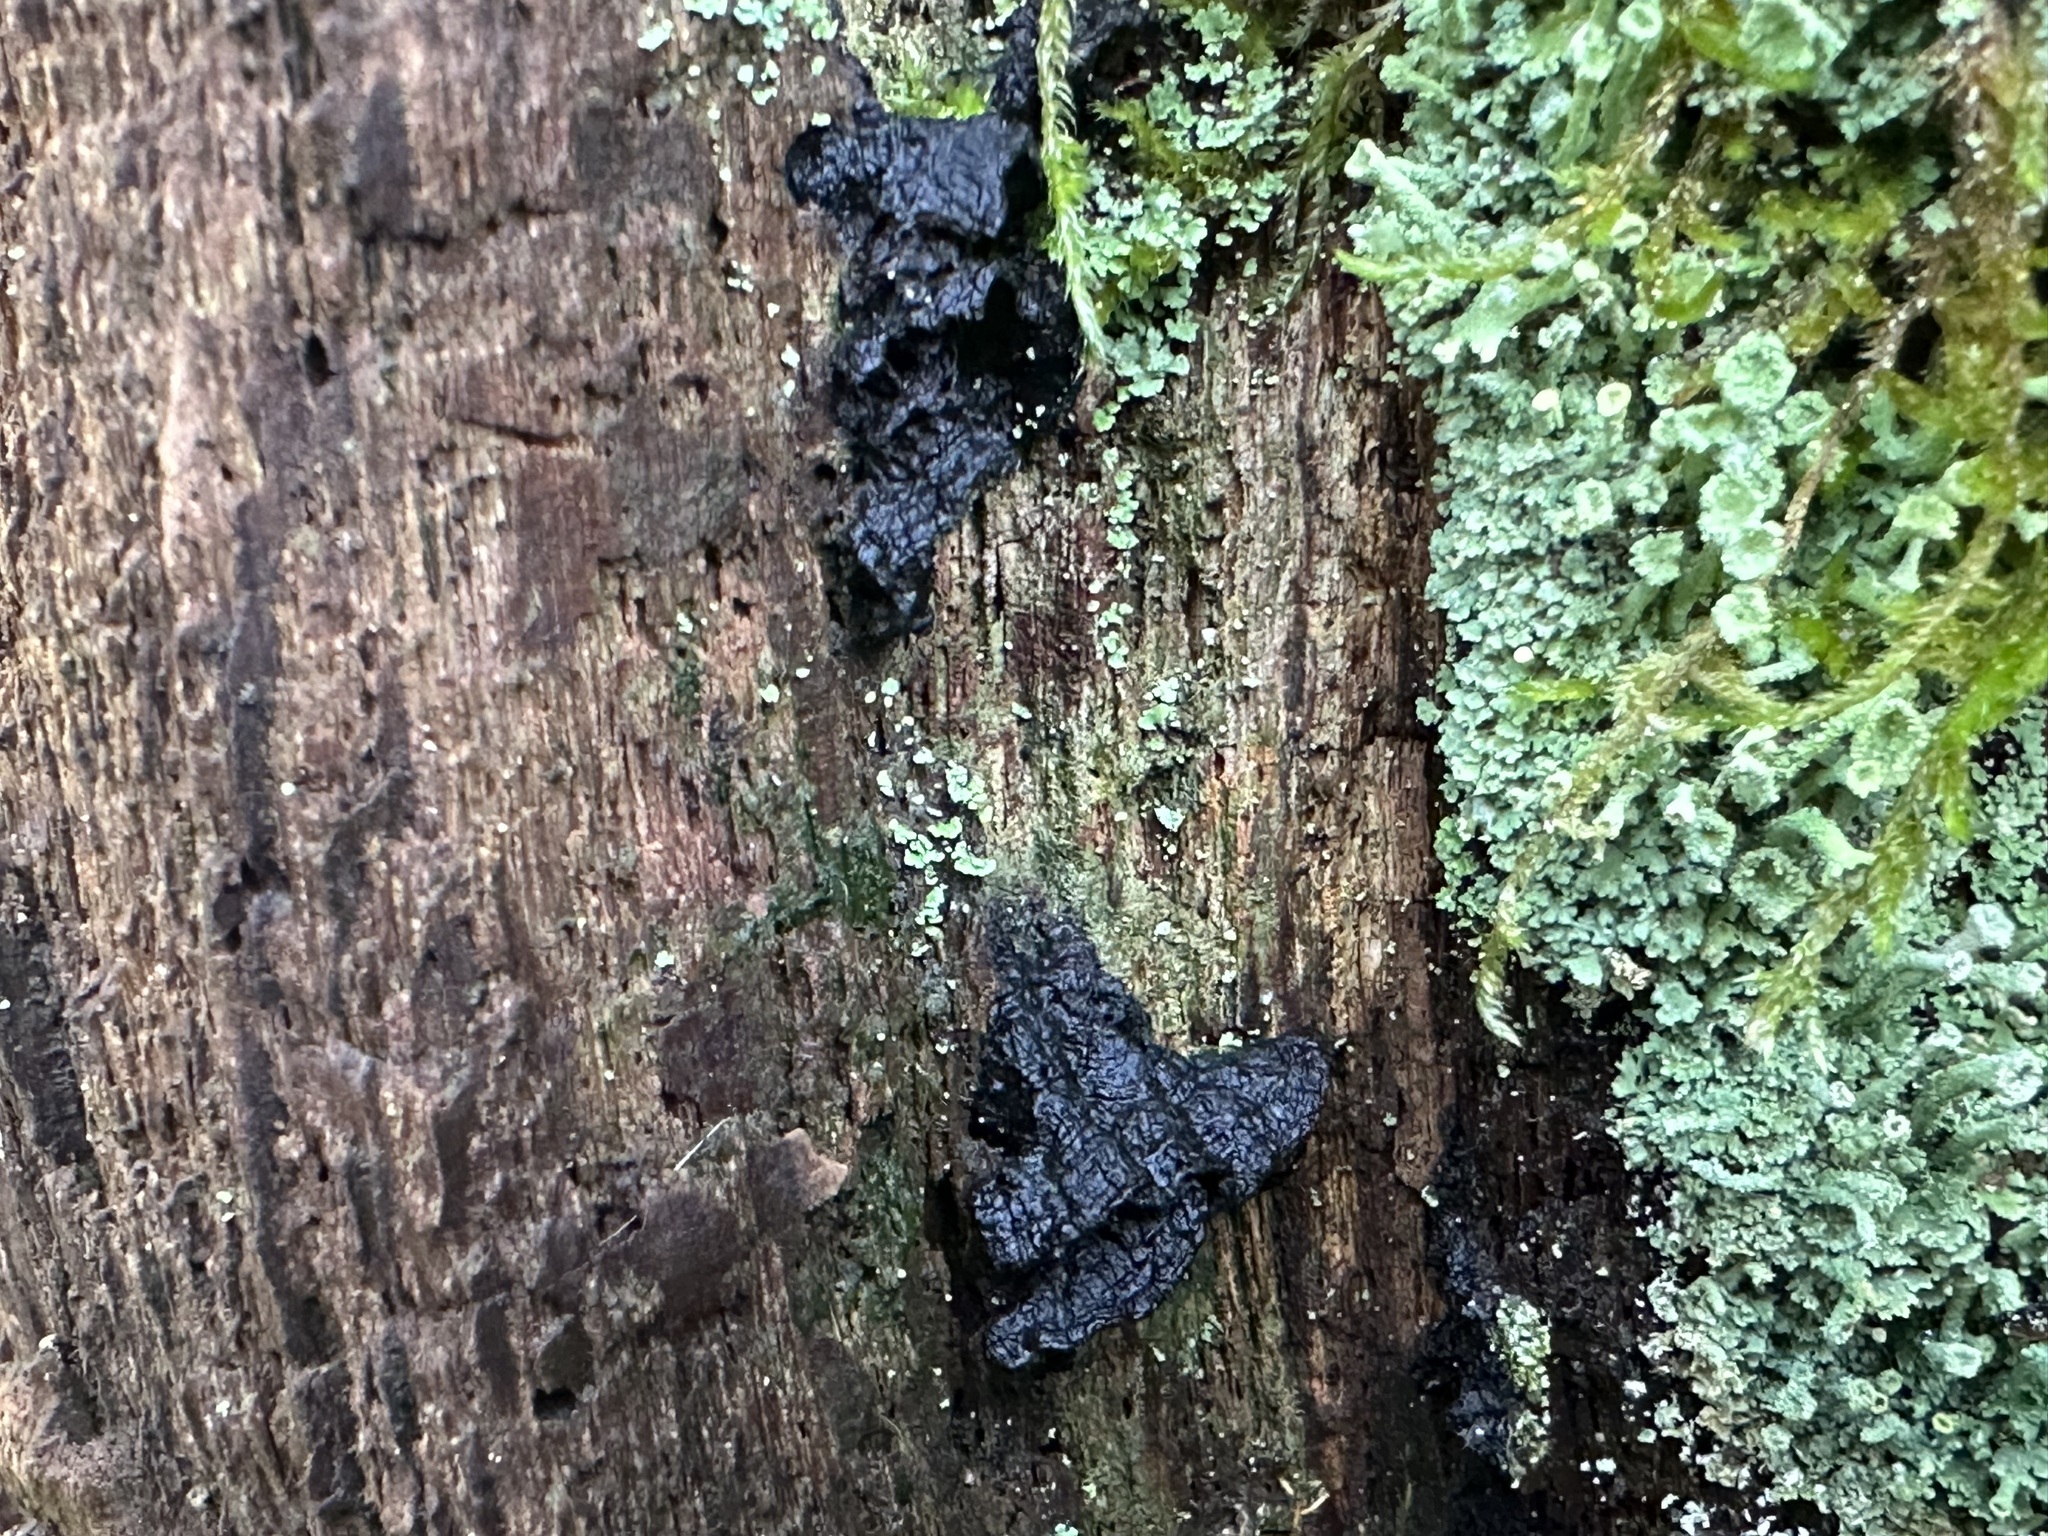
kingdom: Fungi
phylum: Basidiomycota
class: Agaricomycetes
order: Hymenochaetales
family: Hymenochaetaceae
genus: Hymenochaete
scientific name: Hymenochaete rubiginosa
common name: Oak curtain crust
